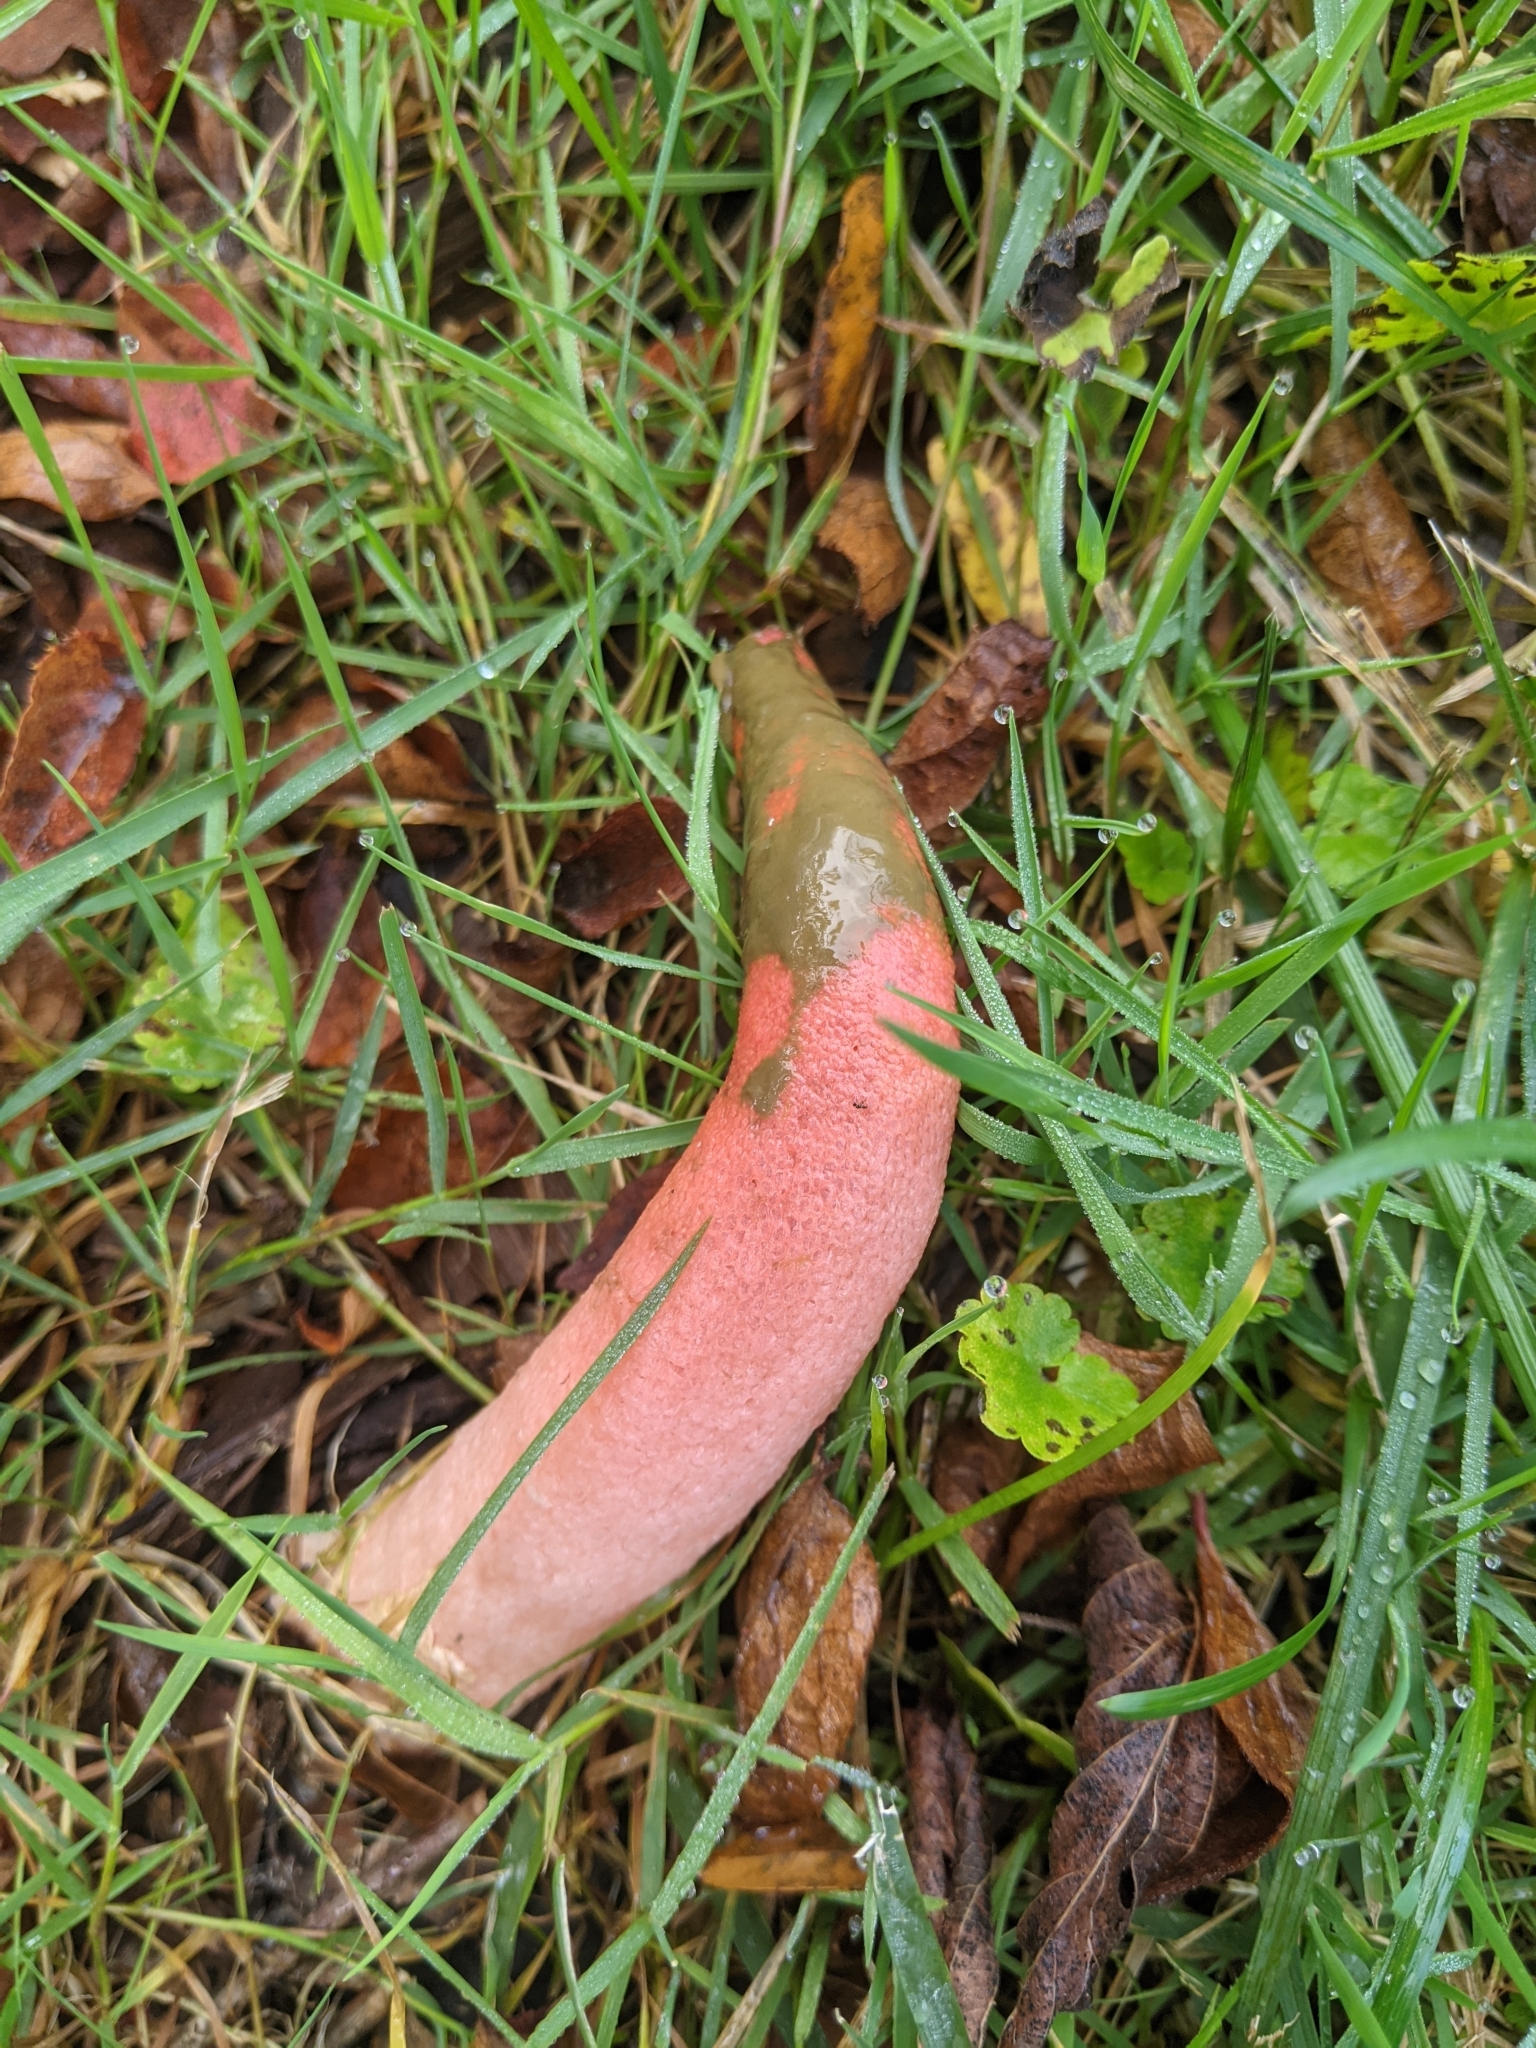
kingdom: Fungi
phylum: Basidiomycota
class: Agaricomycetes
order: Phallales
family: Phallaceae
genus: Mutinus
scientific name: Mutinus elegans
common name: Devil's dipstick
